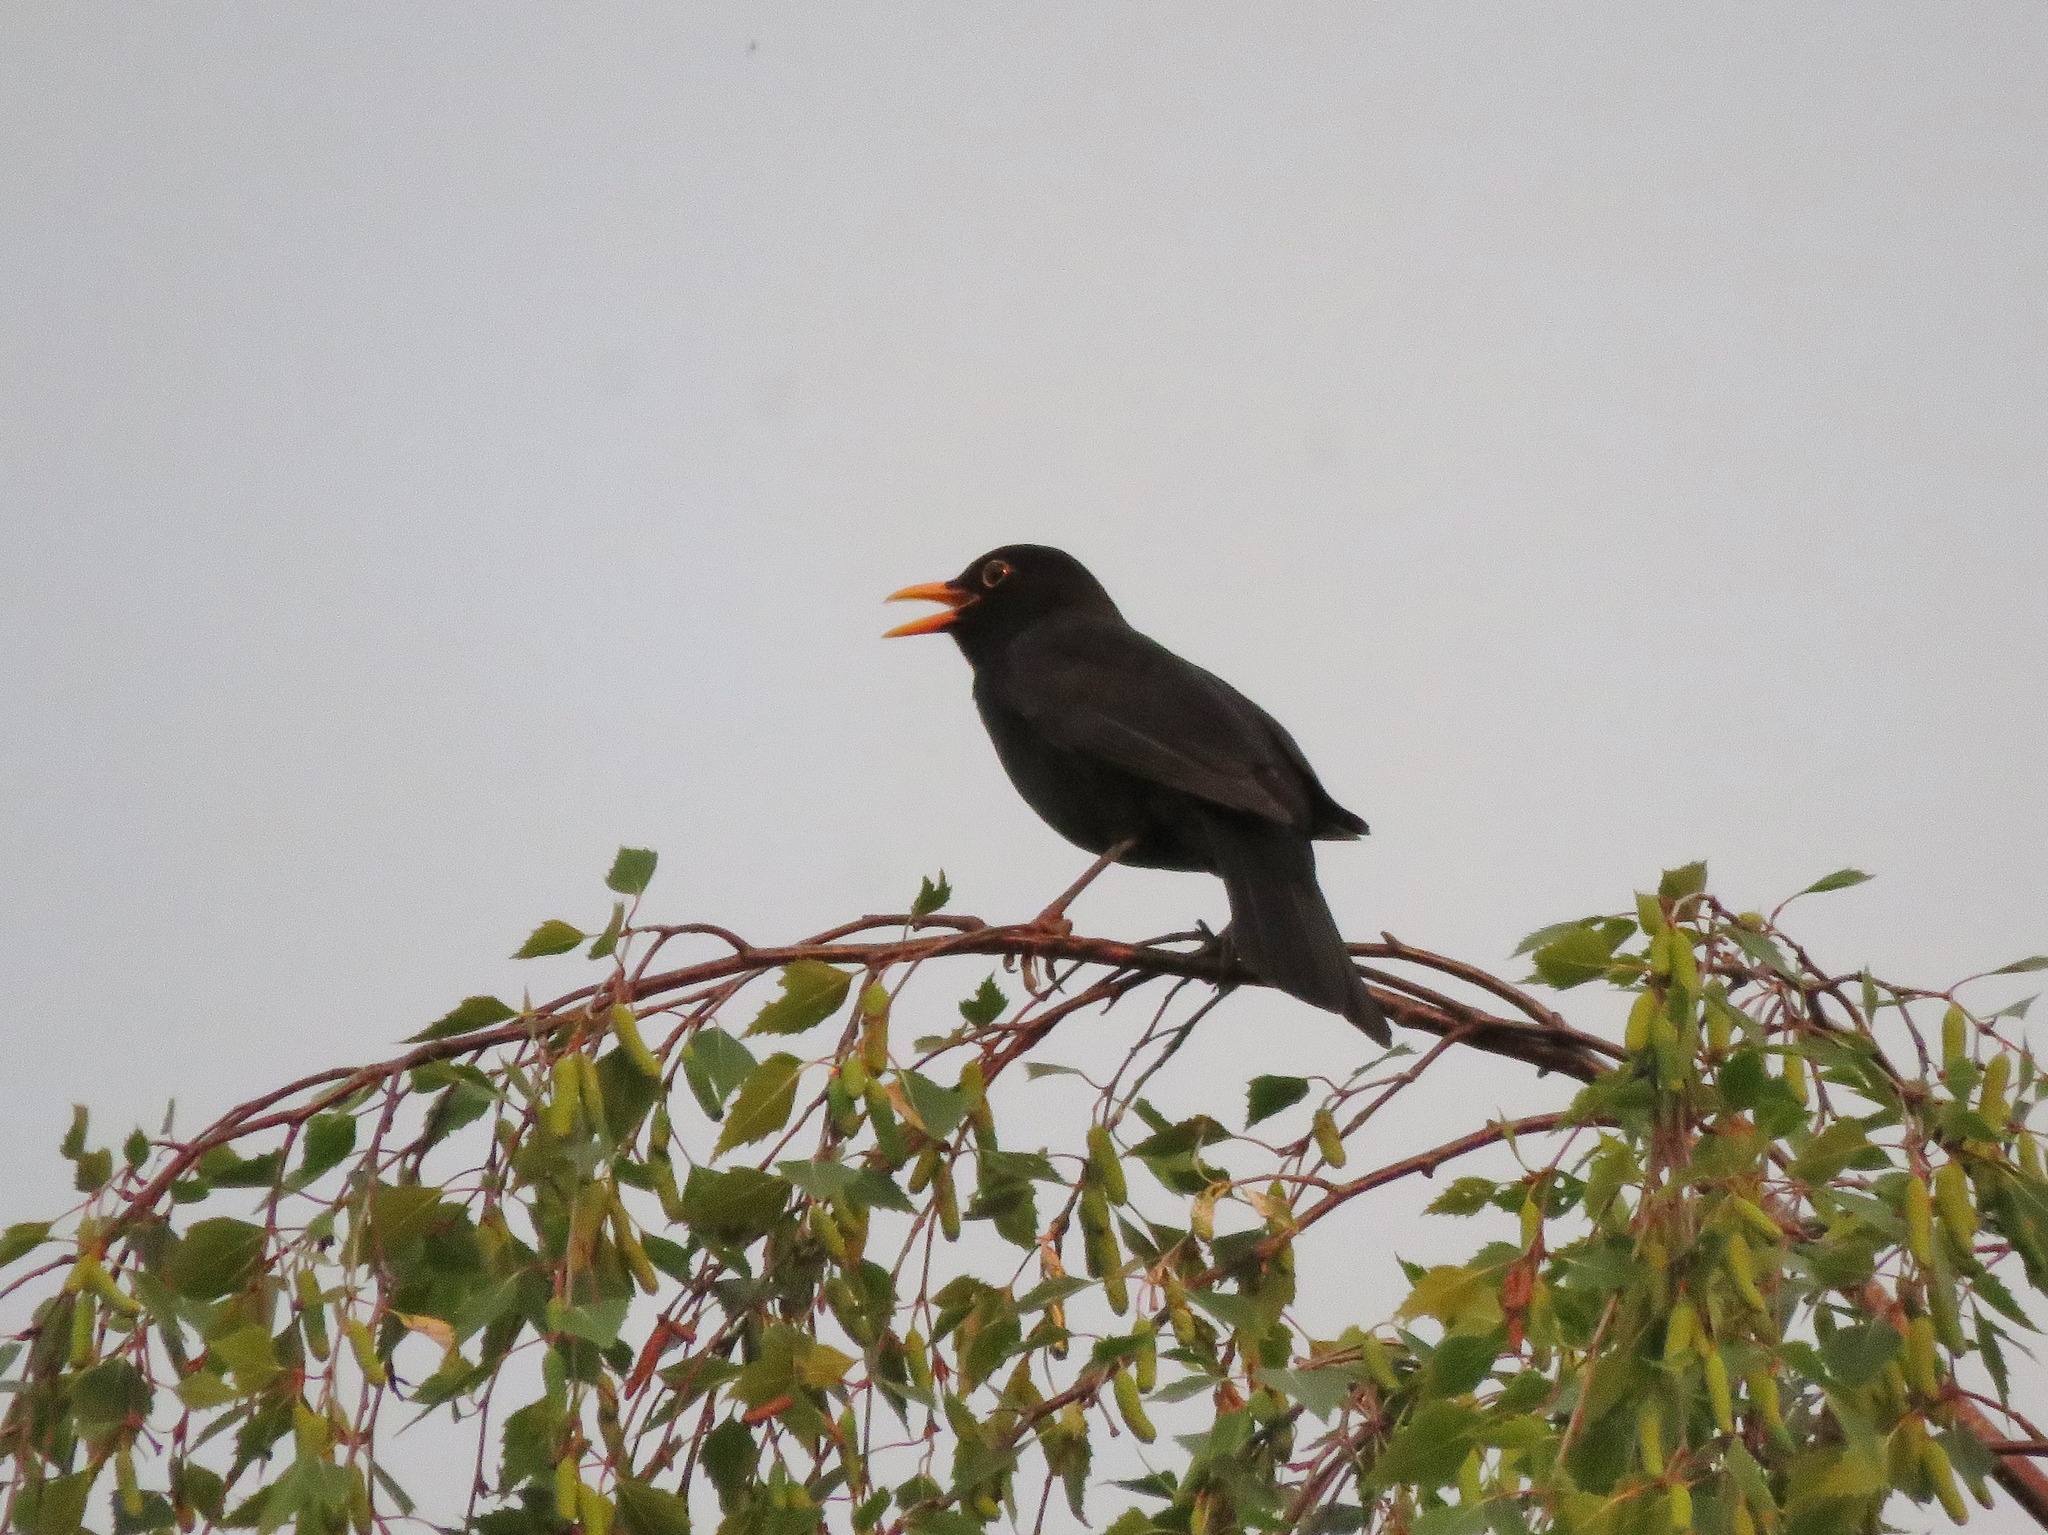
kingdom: Animalia
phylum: Chordata
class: Aves
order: Passeriformes
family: Turdidae
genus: Turdus
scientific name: Turdus merula
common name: Common blackbird
